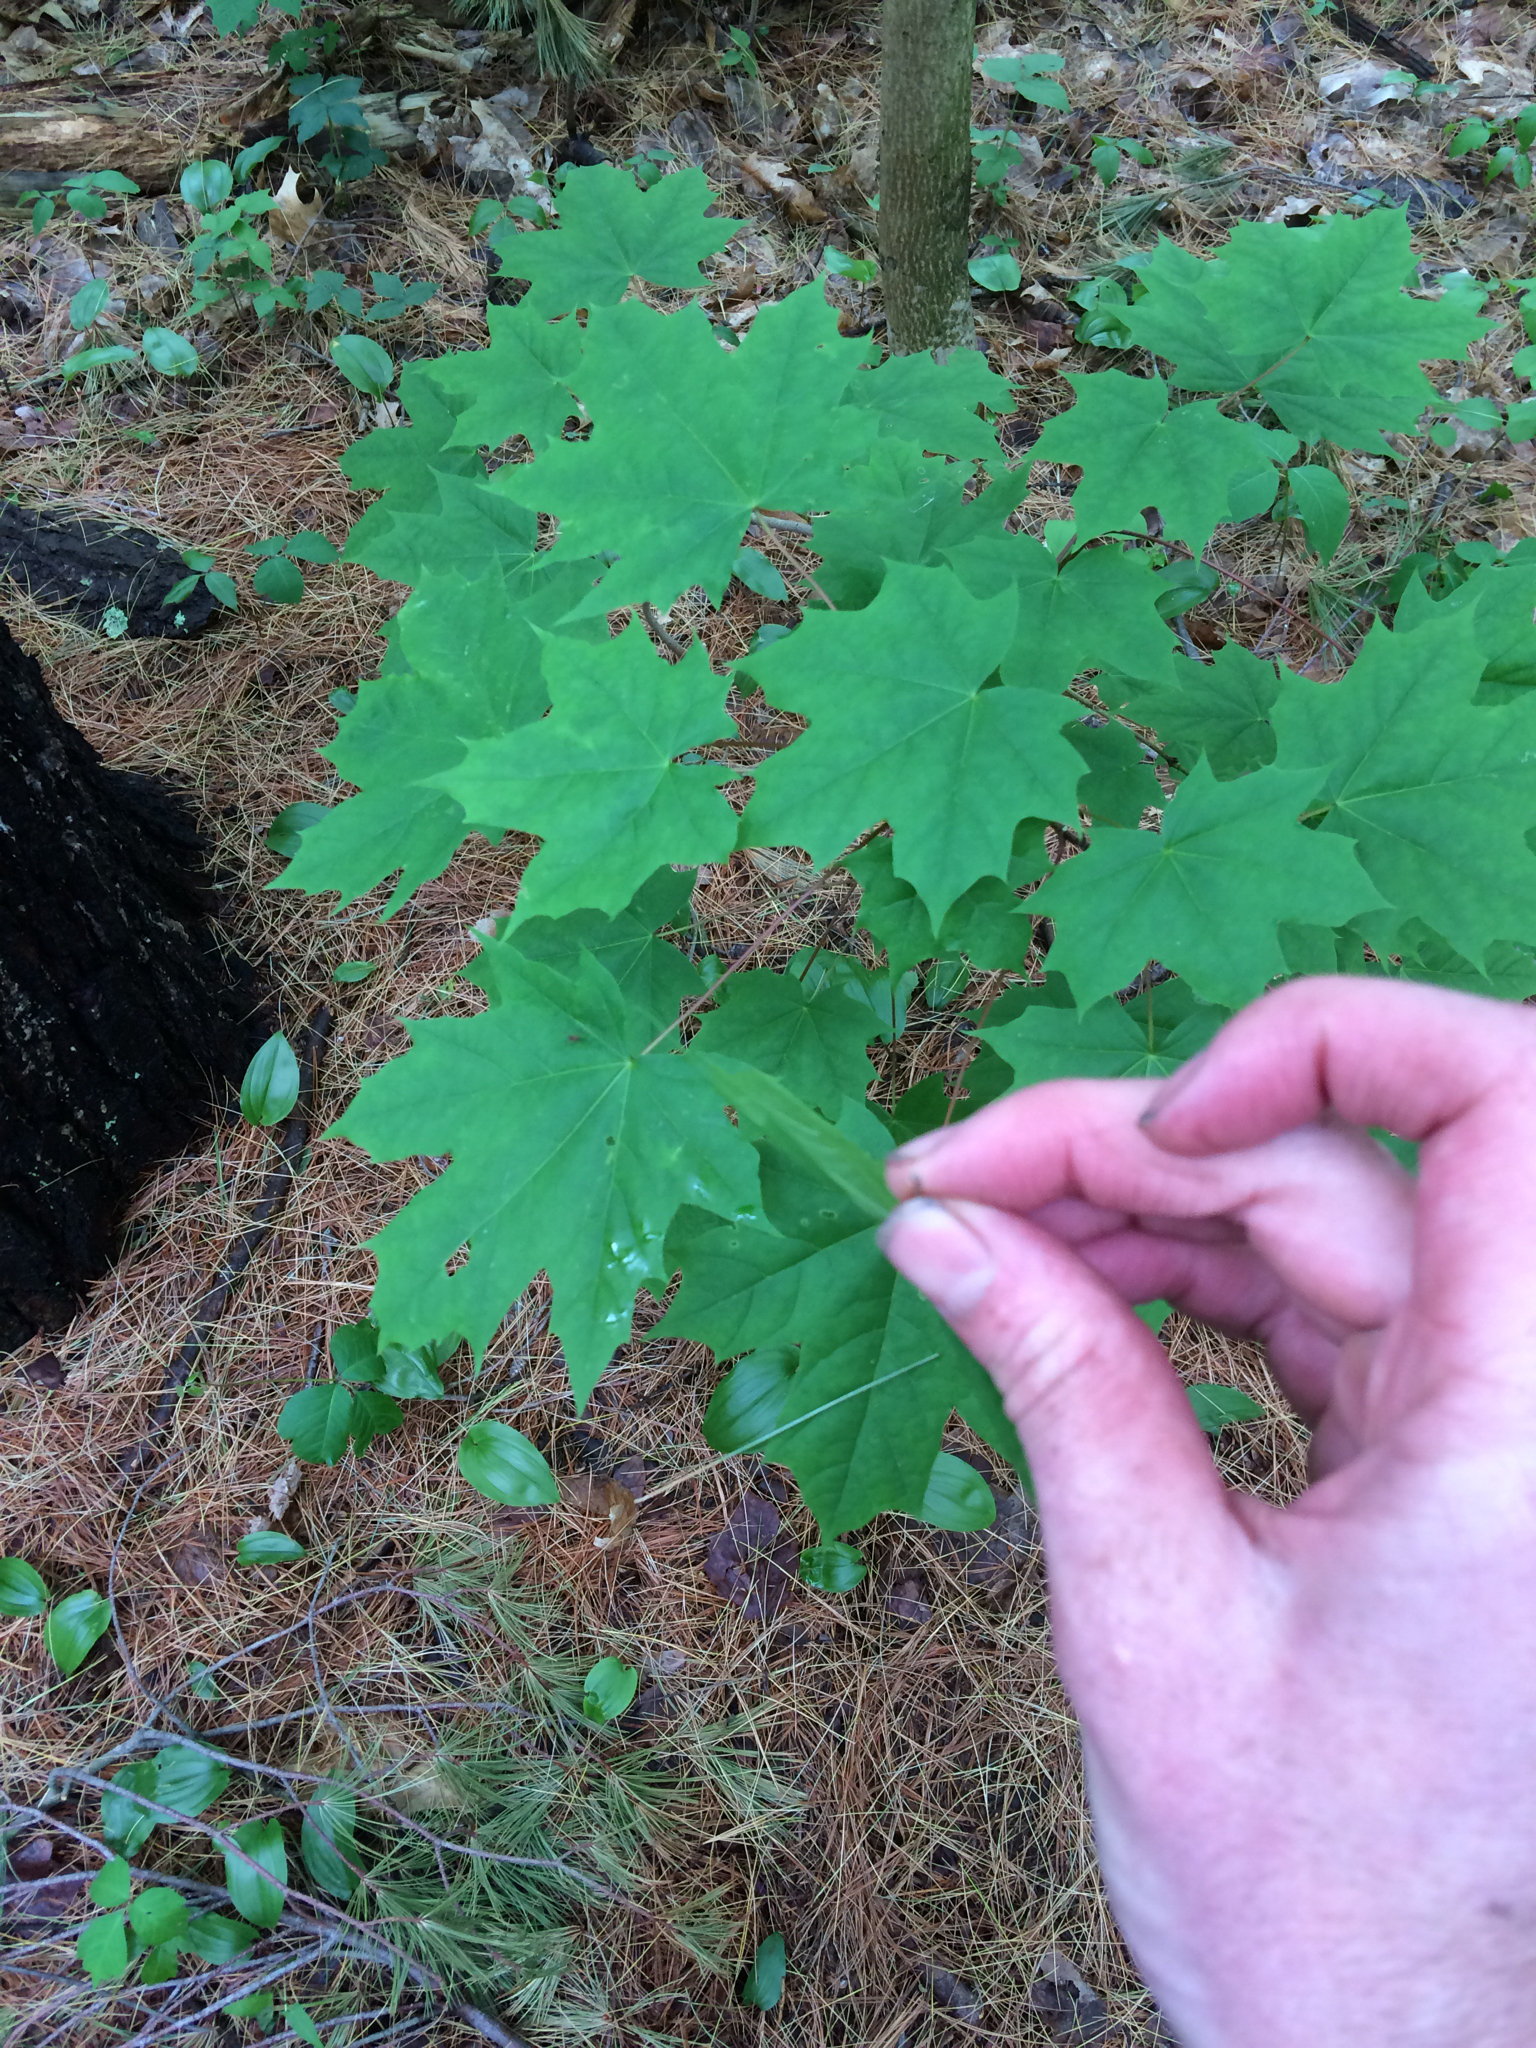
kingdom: Plantae
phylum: Tracheophyta
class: Magnoliopsida
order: Sapindales
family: Sapindaceae
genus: Acer
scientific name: Acer
